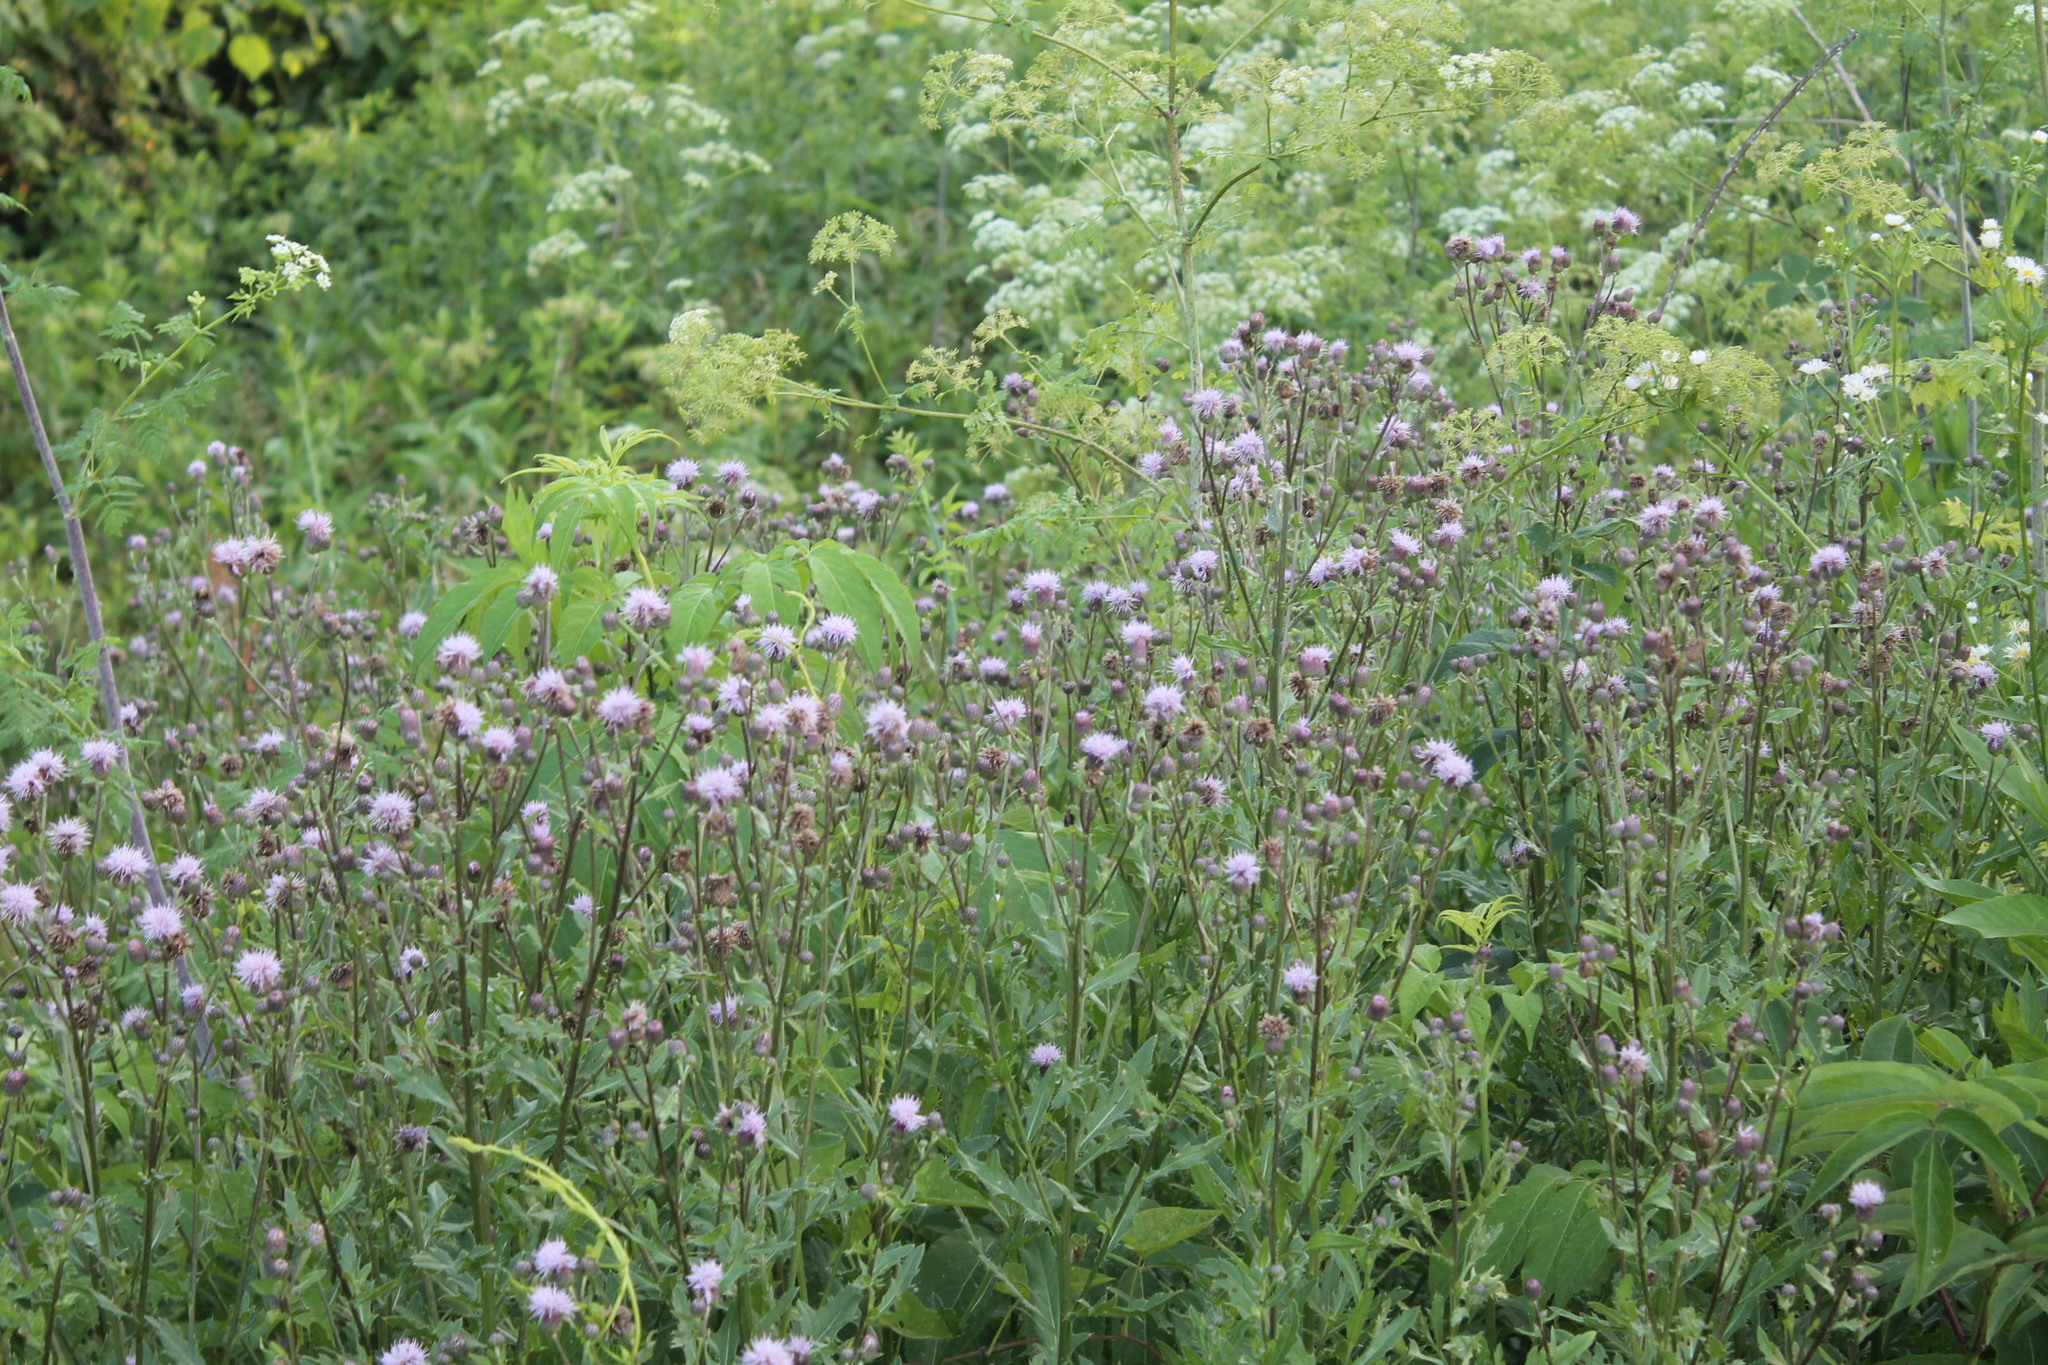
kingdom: Plantae
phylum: Tracheophyta
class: Magnoliopsida
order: Asterales
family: Asteraceae
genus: Cirsium
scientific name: Cirsium arvense
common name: Creeping thistle
